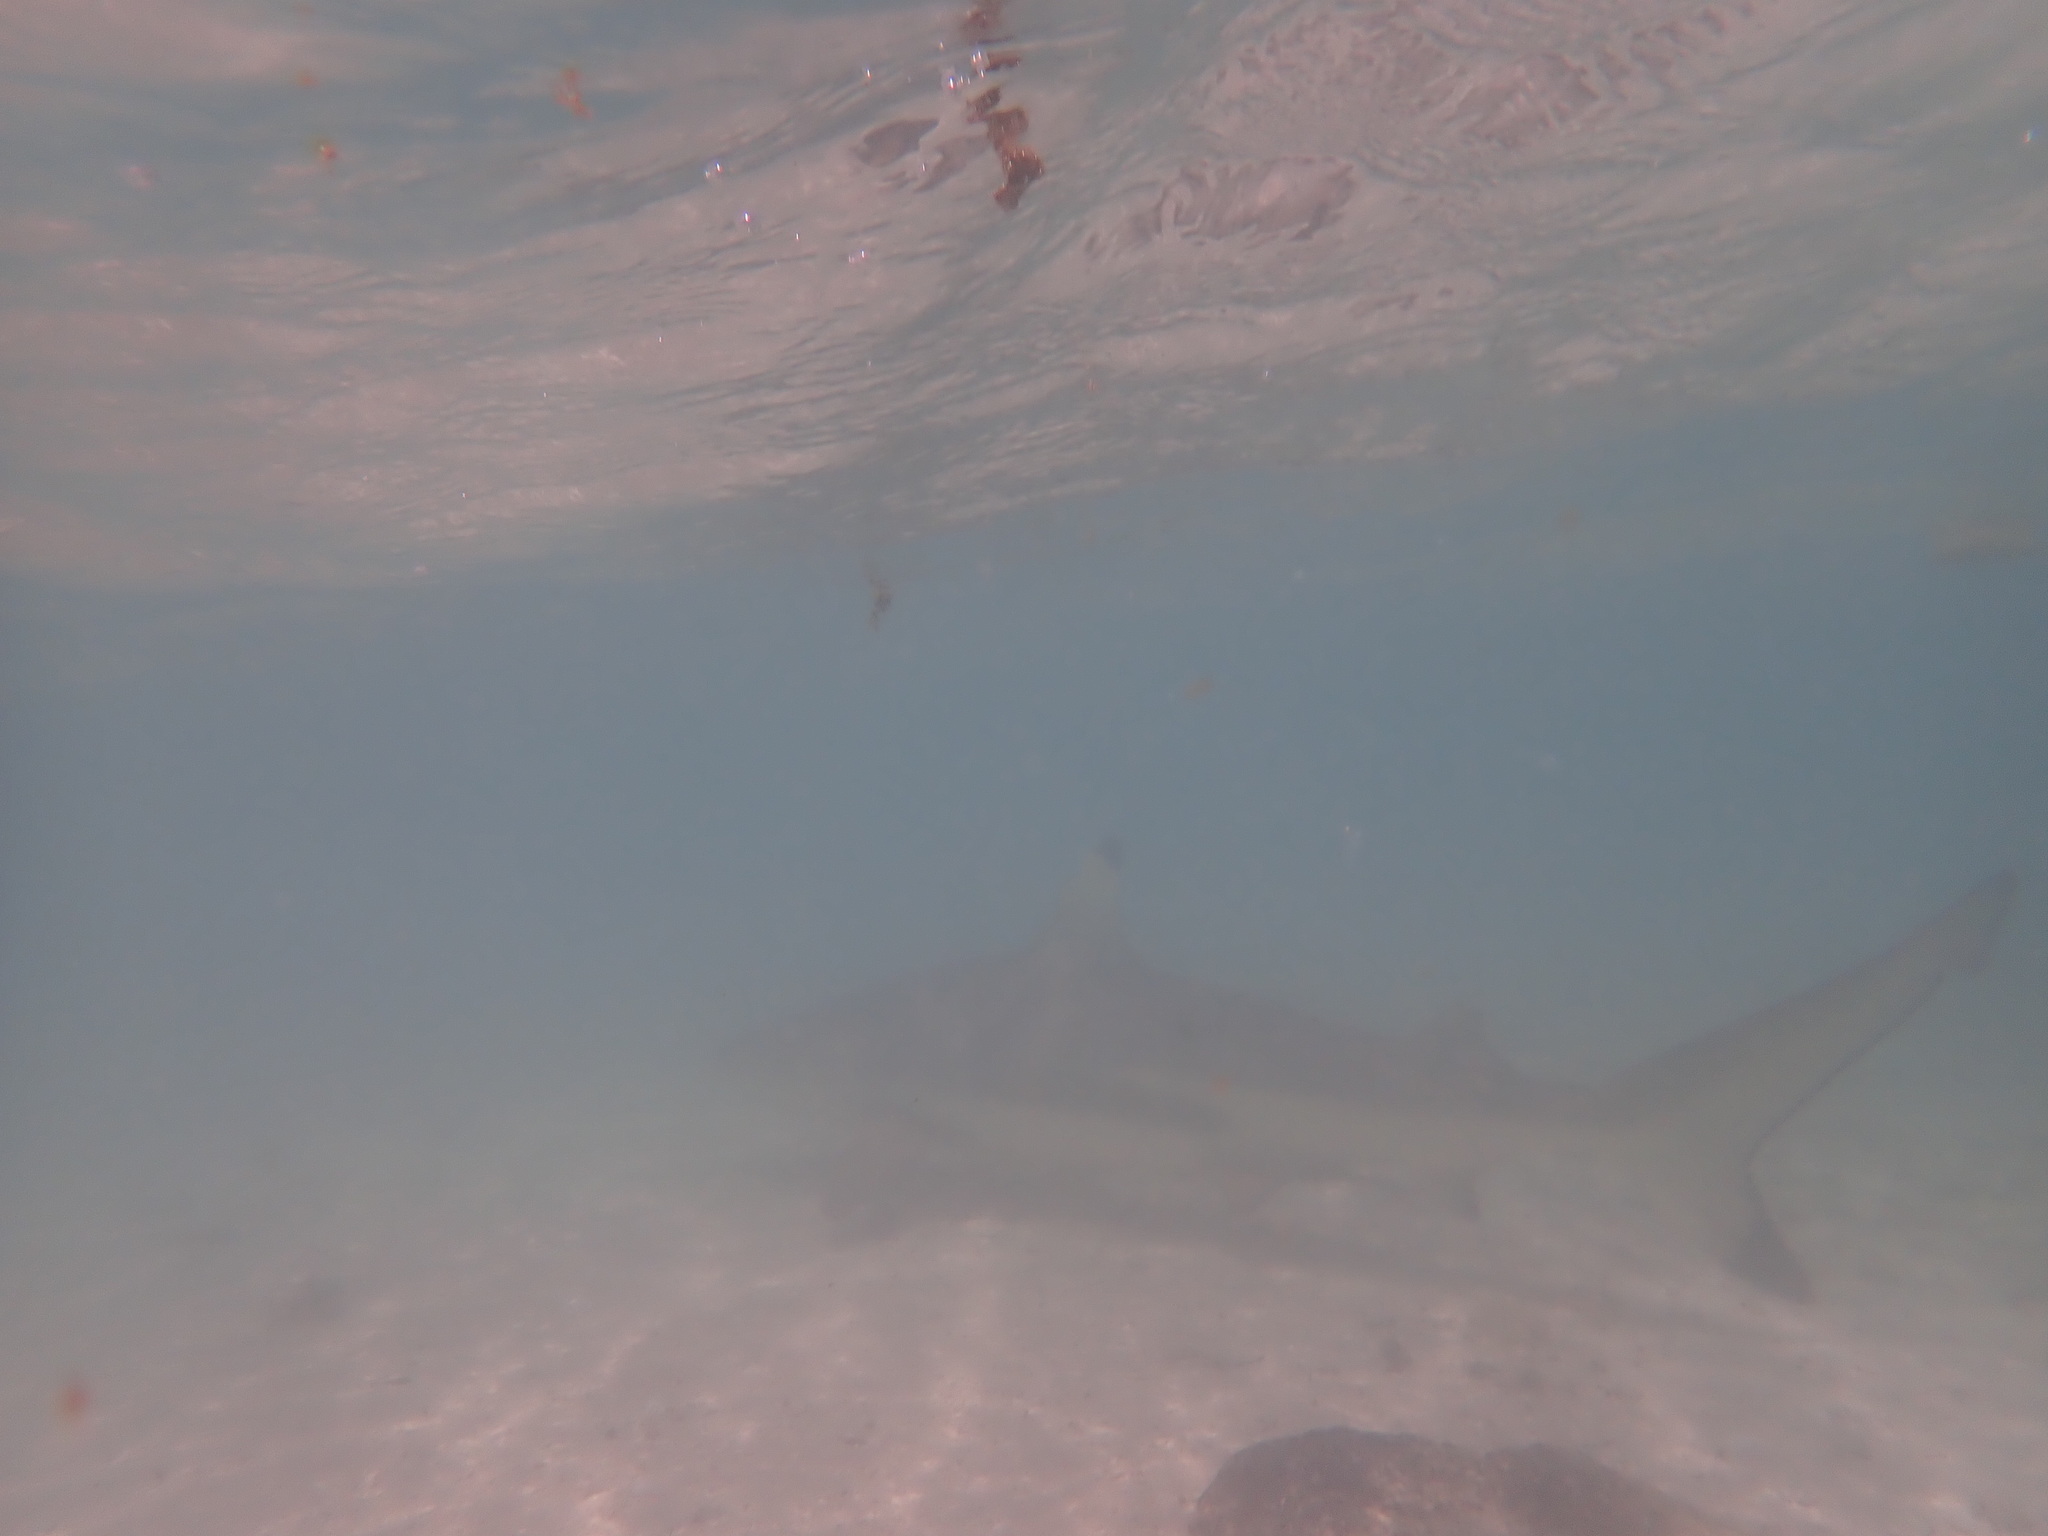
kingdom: Animalia
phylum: Chordata
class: Elasmobranchii
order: Carcharhiniformes
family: Carcharhinidae
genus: Carcharhinus
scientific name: Carcharhinus melanopterus
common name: Blacktip reef shark
